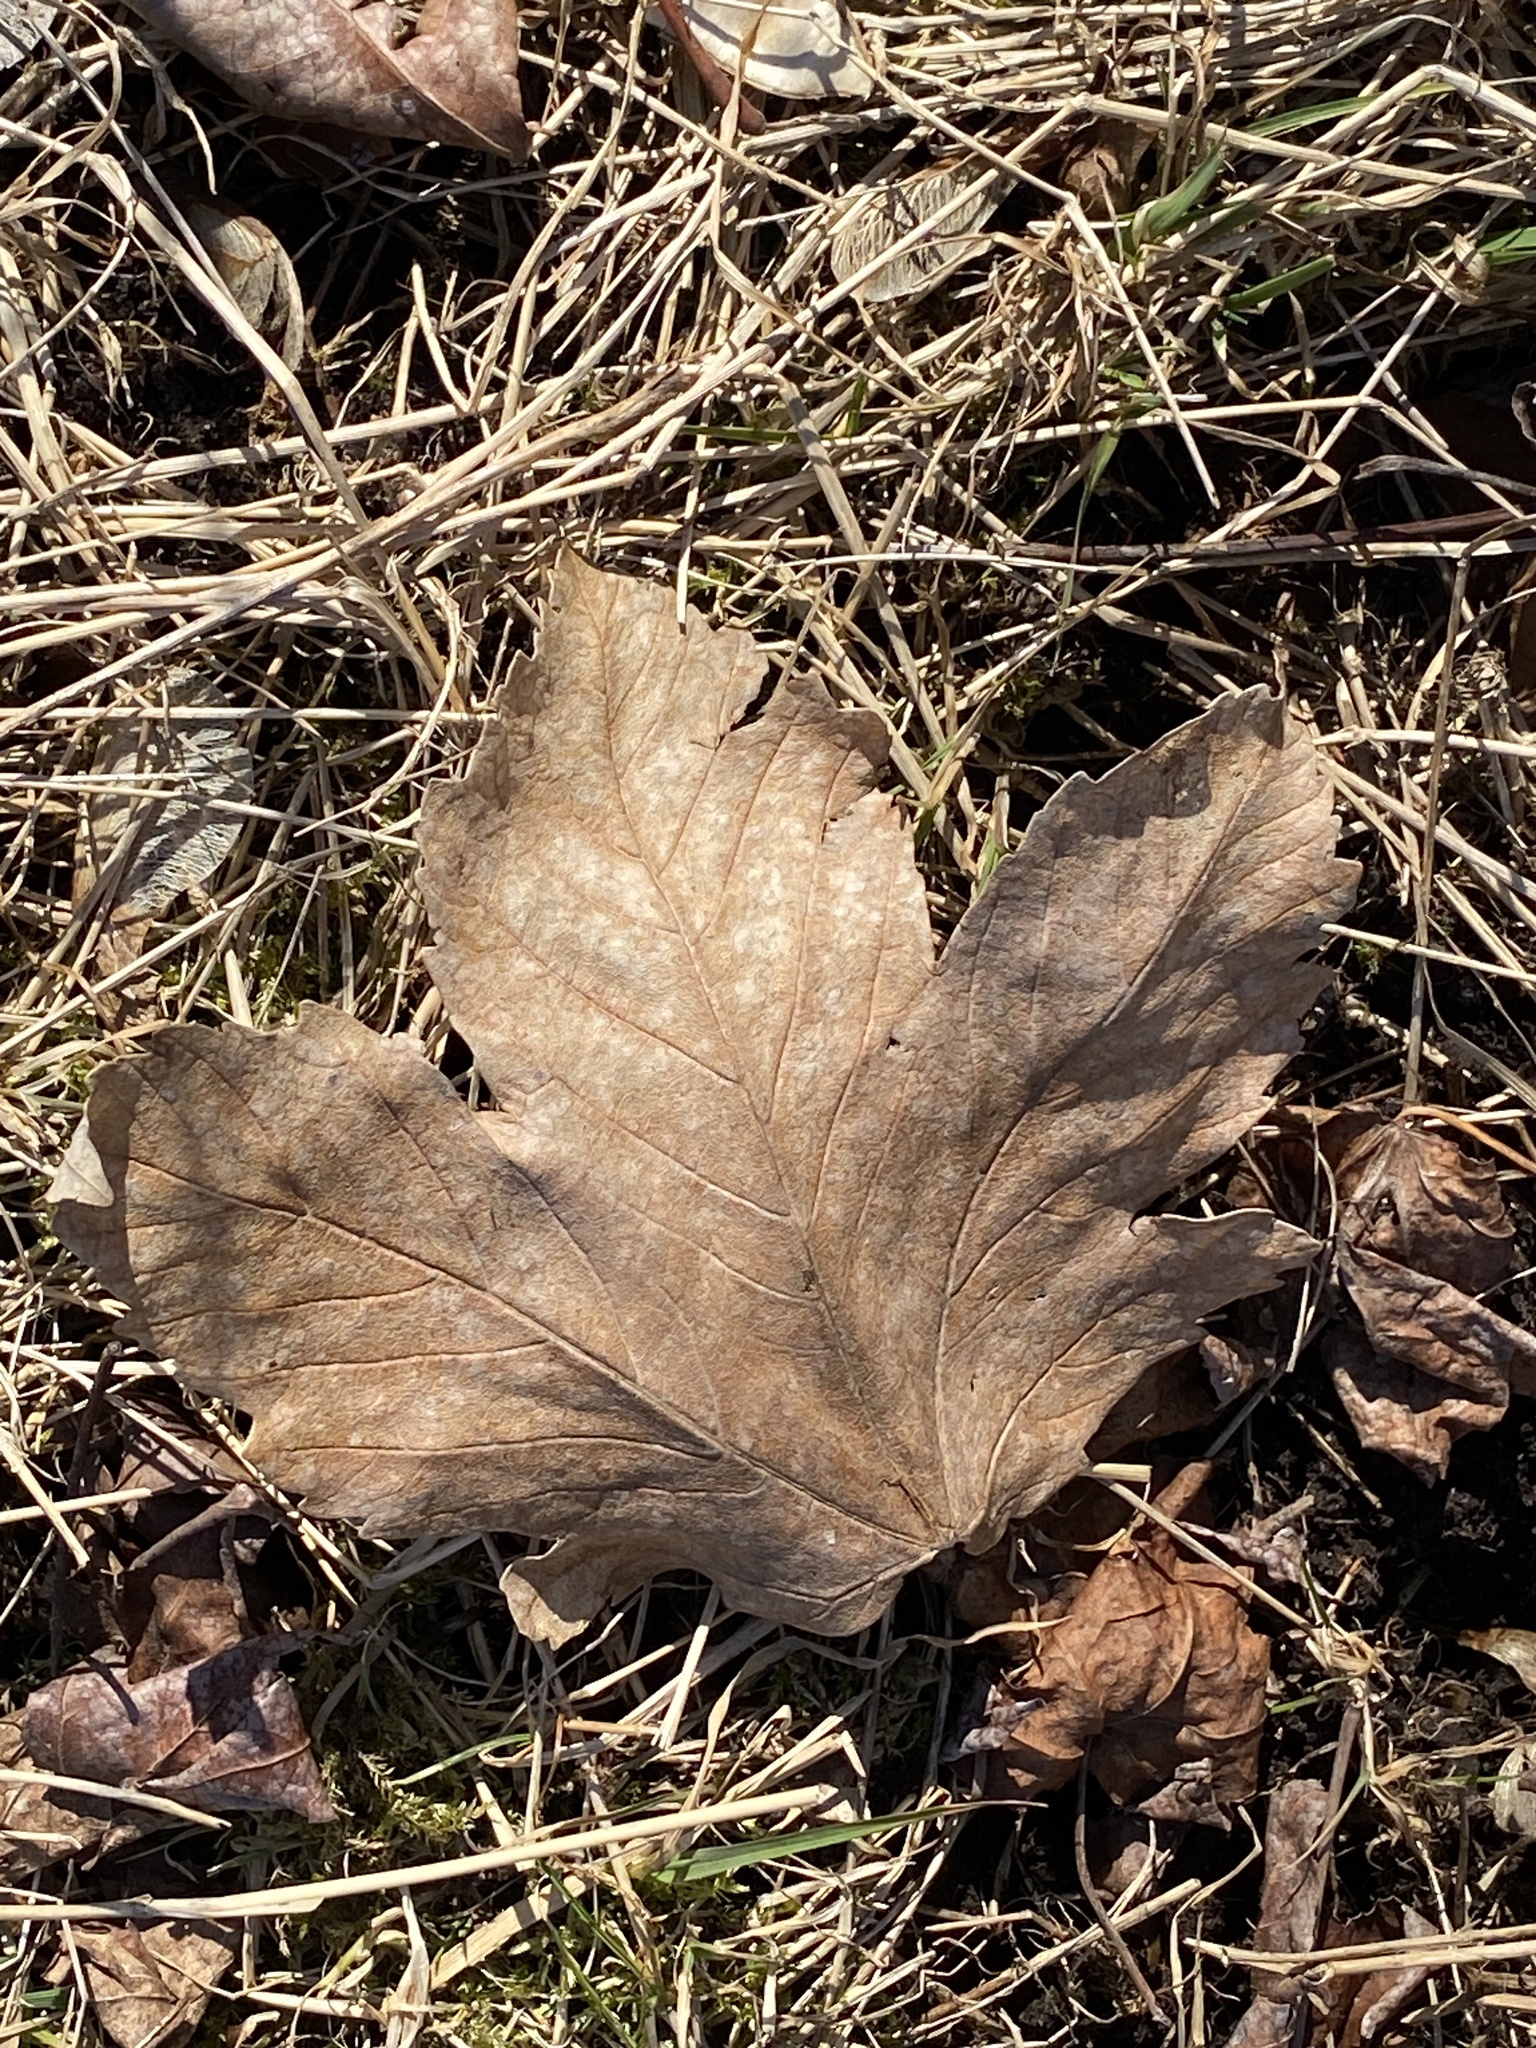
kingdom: Plantae
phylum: Tracheophyta
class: Magnoliopsida
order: Sapindales
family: Sapindaceae
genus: Acer
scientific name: Acer pseudoplatanus
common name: Sycamore
